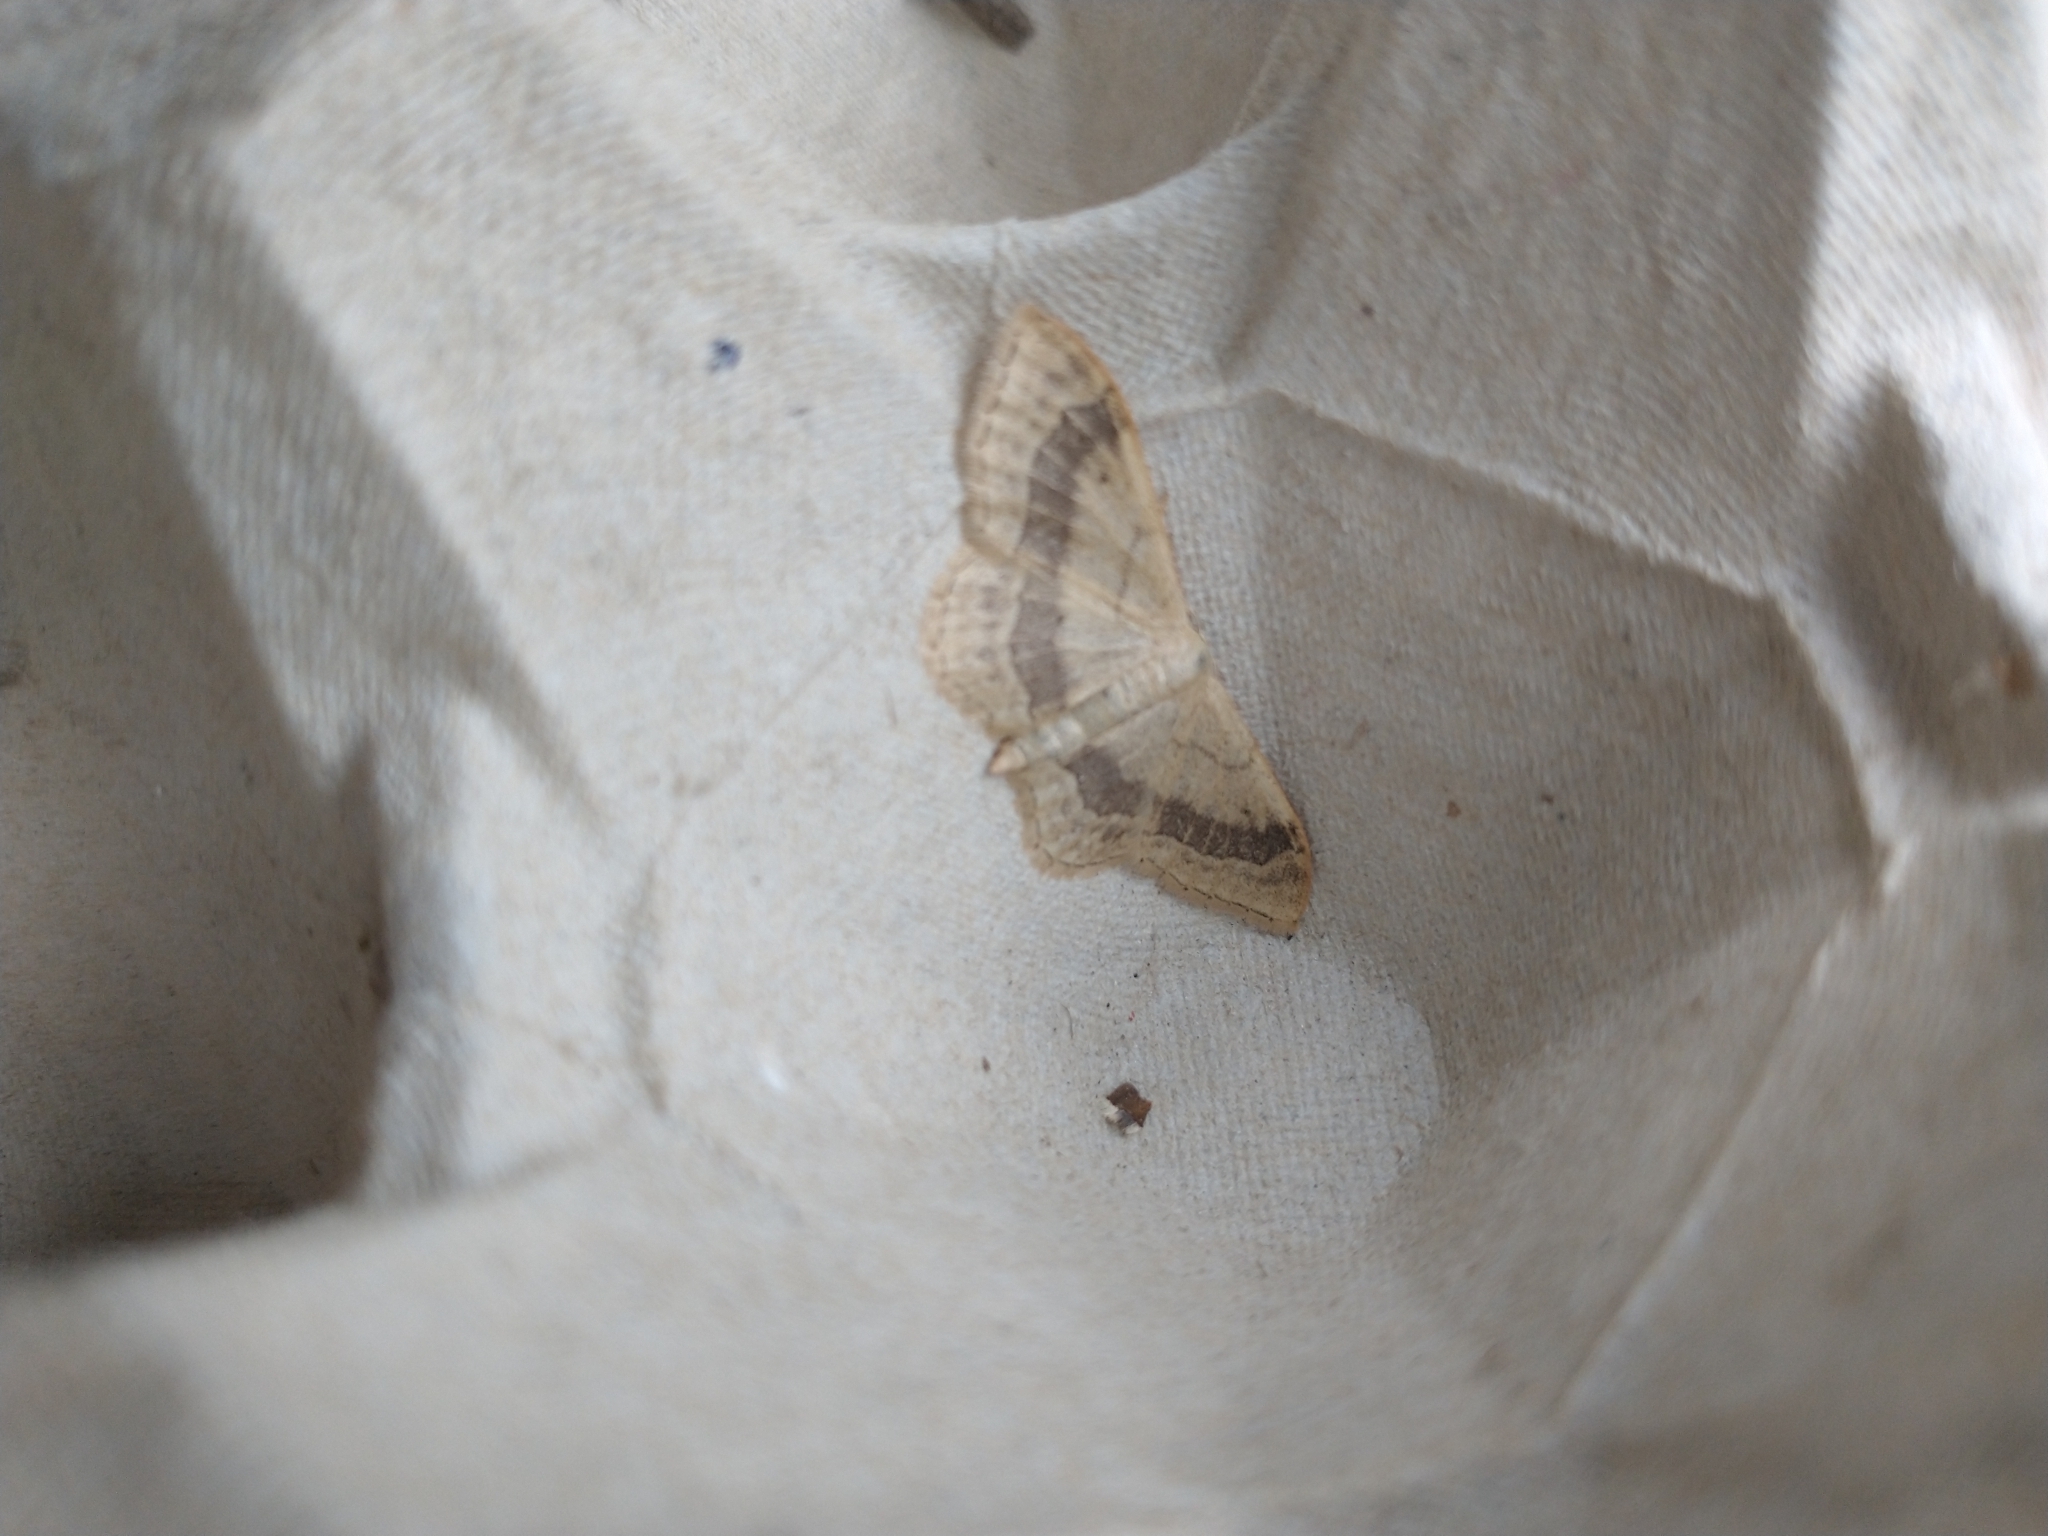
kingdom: Animalia
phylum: Arthropoda
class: Insecta
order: Lepidoptera
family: Geometridae
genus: Idaea
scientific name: Idaea aversata
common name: Riband wave
